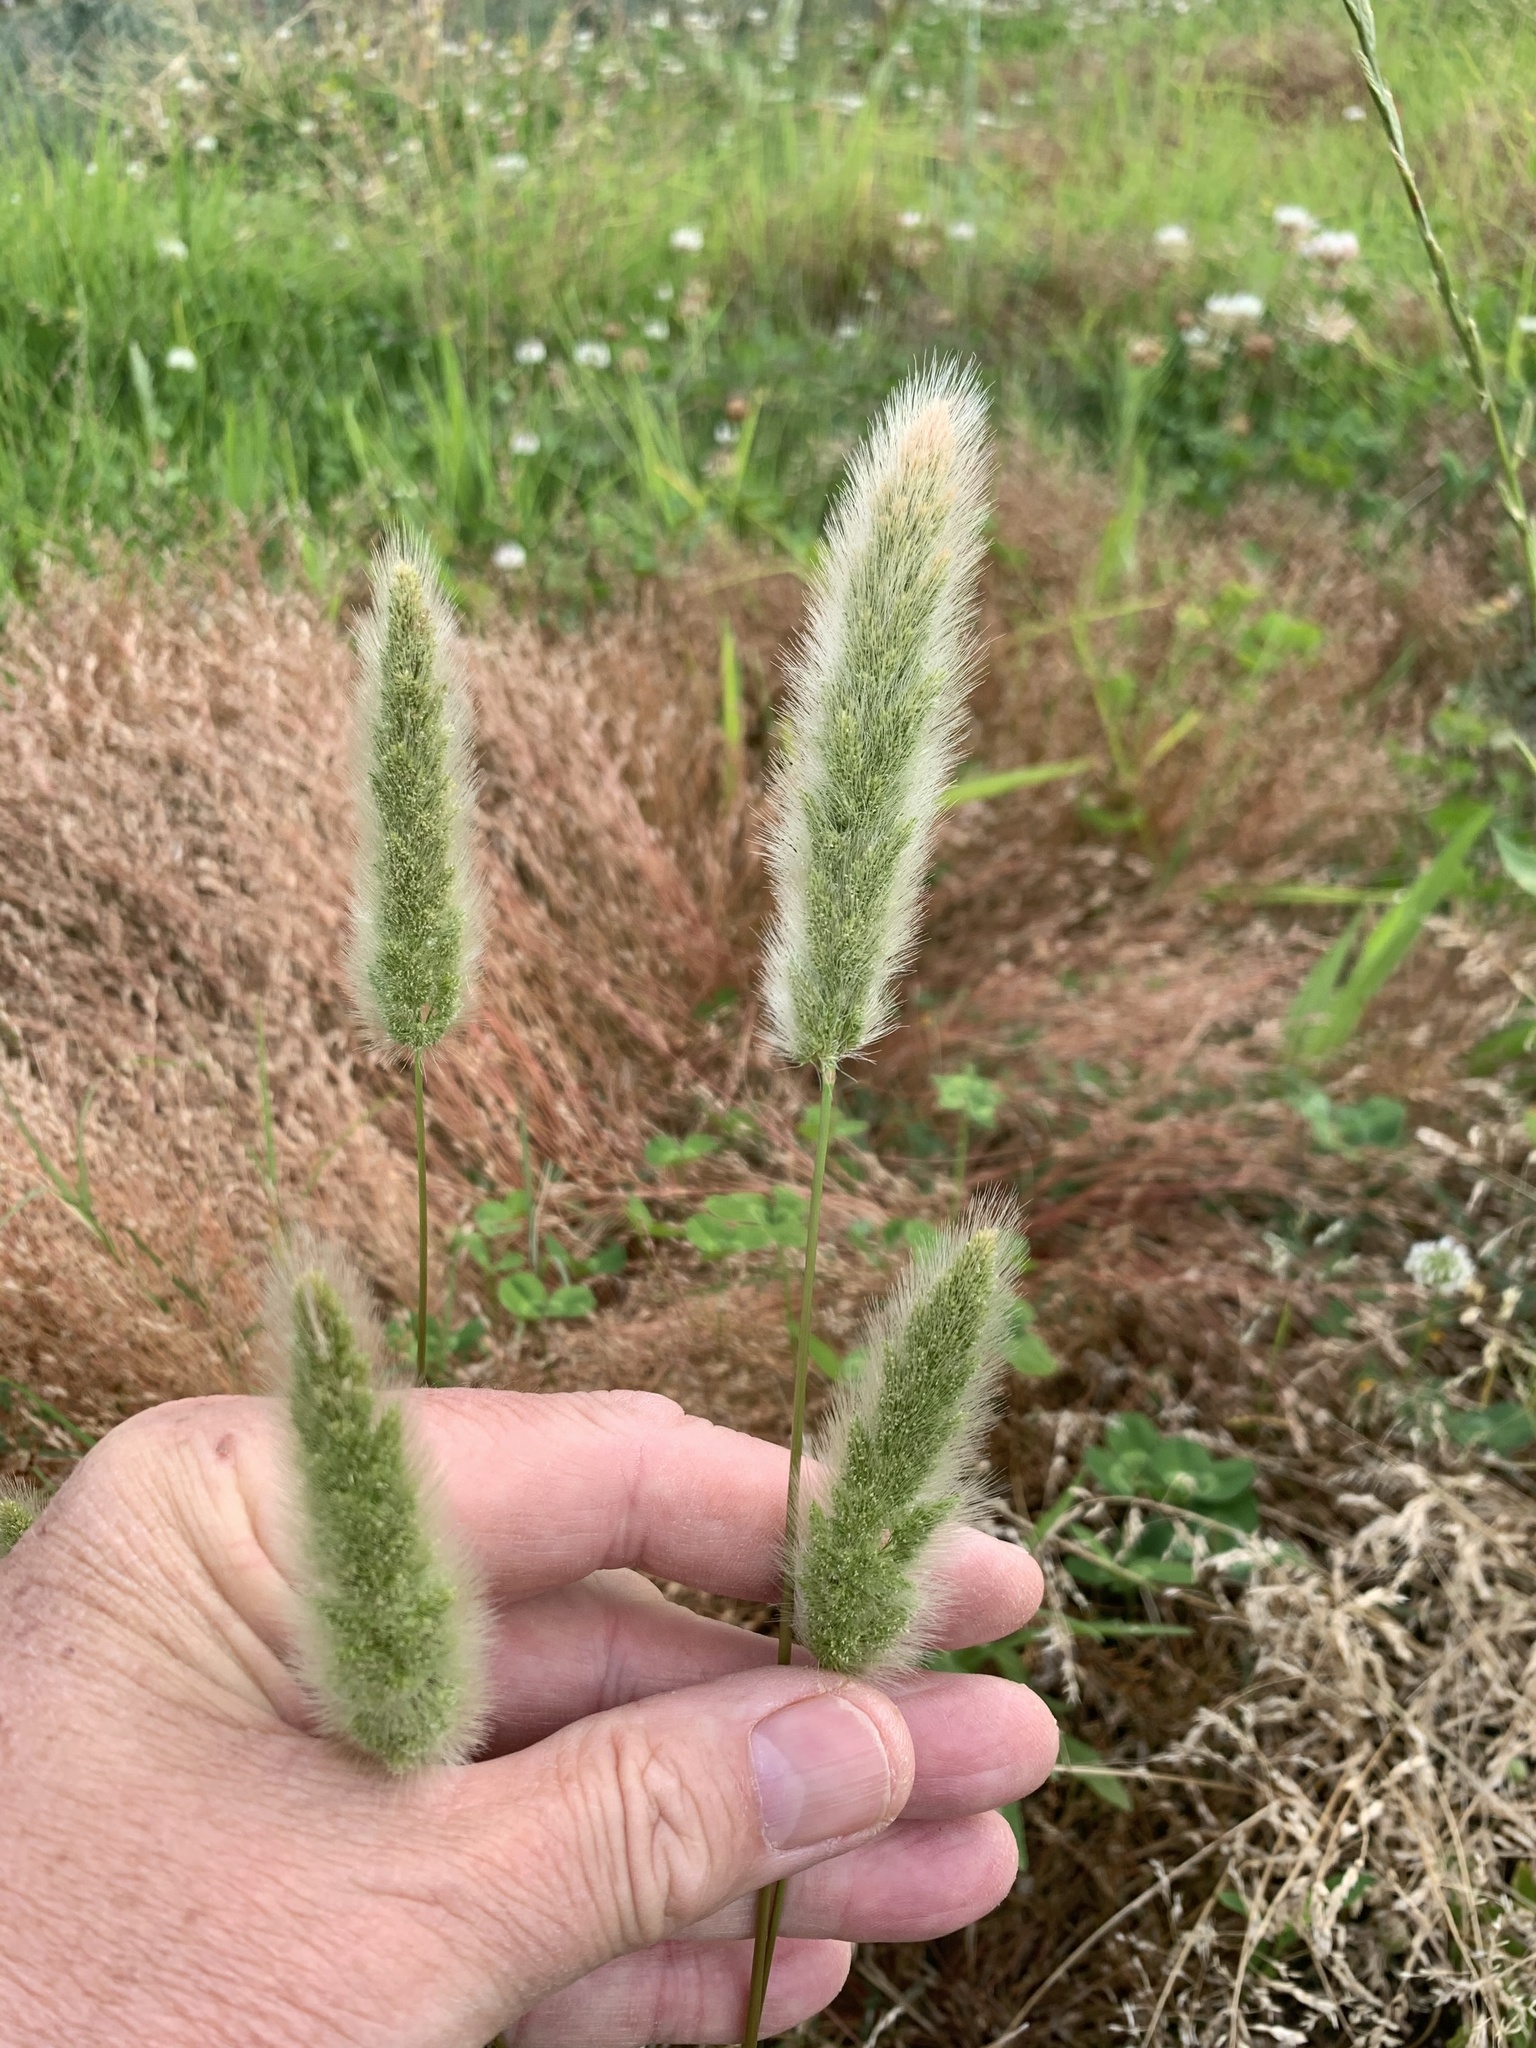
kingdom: Plantae
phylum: Tracheophyta
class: Liliopsida
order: Poales
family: Poaceae
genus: Polypogon
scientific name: Polypogon monspeliensis
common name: Annual rabbitsfoot grass
